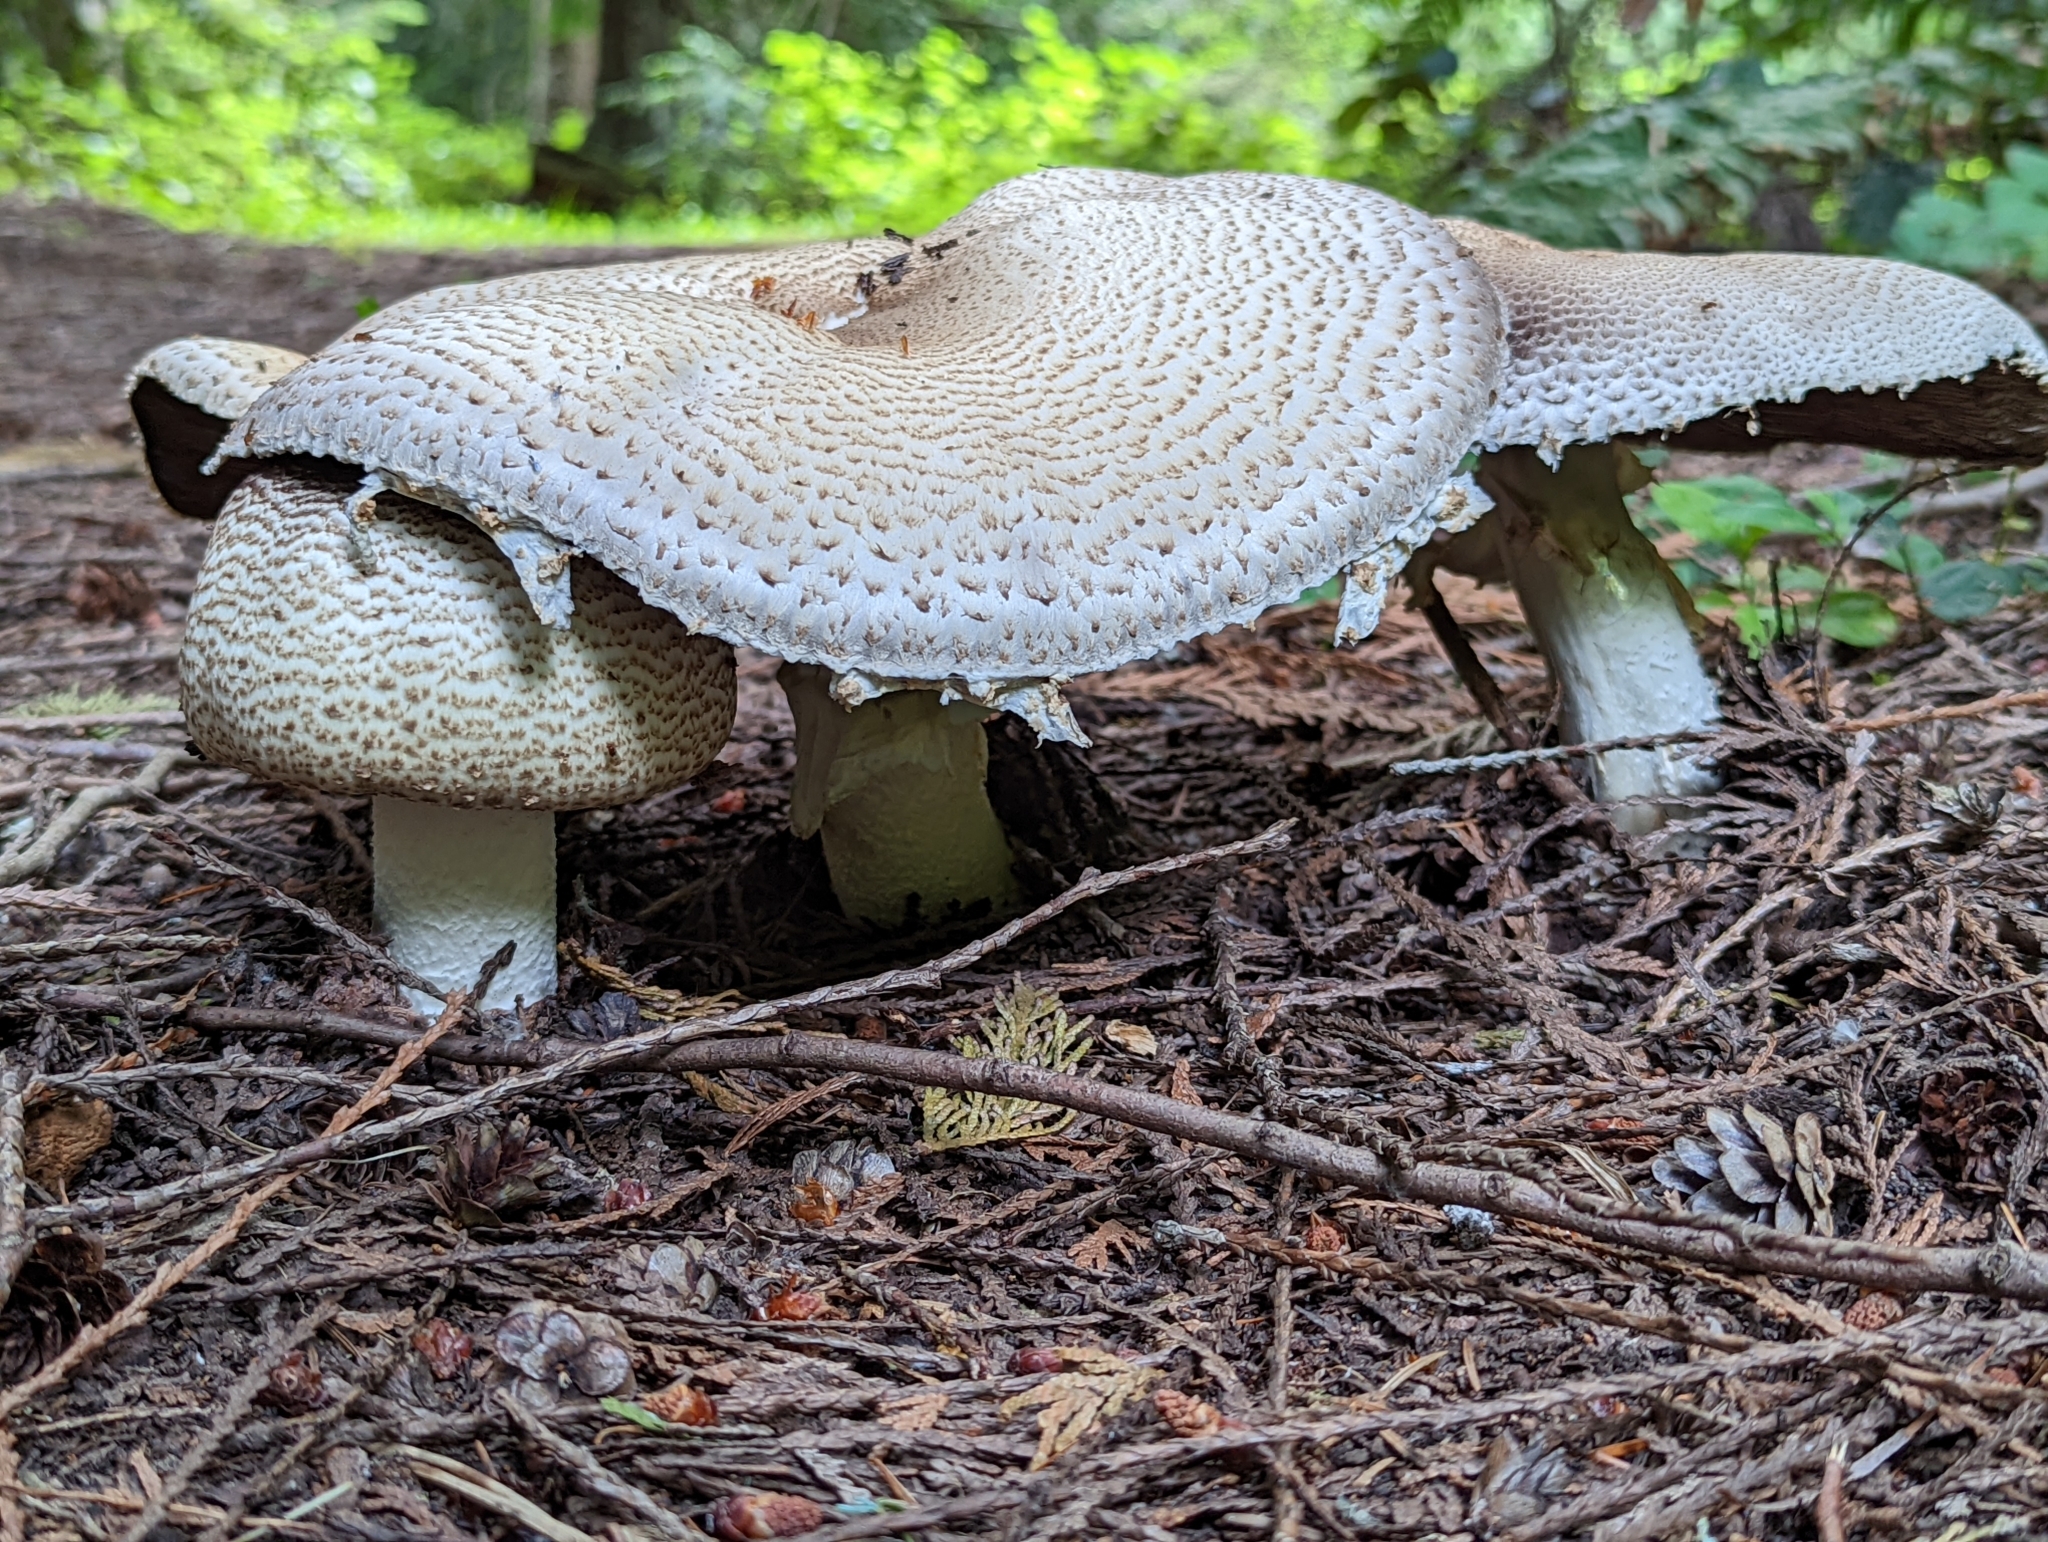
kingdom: Fungi
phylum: Basidiomycota
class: Agaricomycetes
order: Agaricales
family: Agaricaceae
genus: Agaricus
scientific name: Agaricus augustus
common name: Prince
